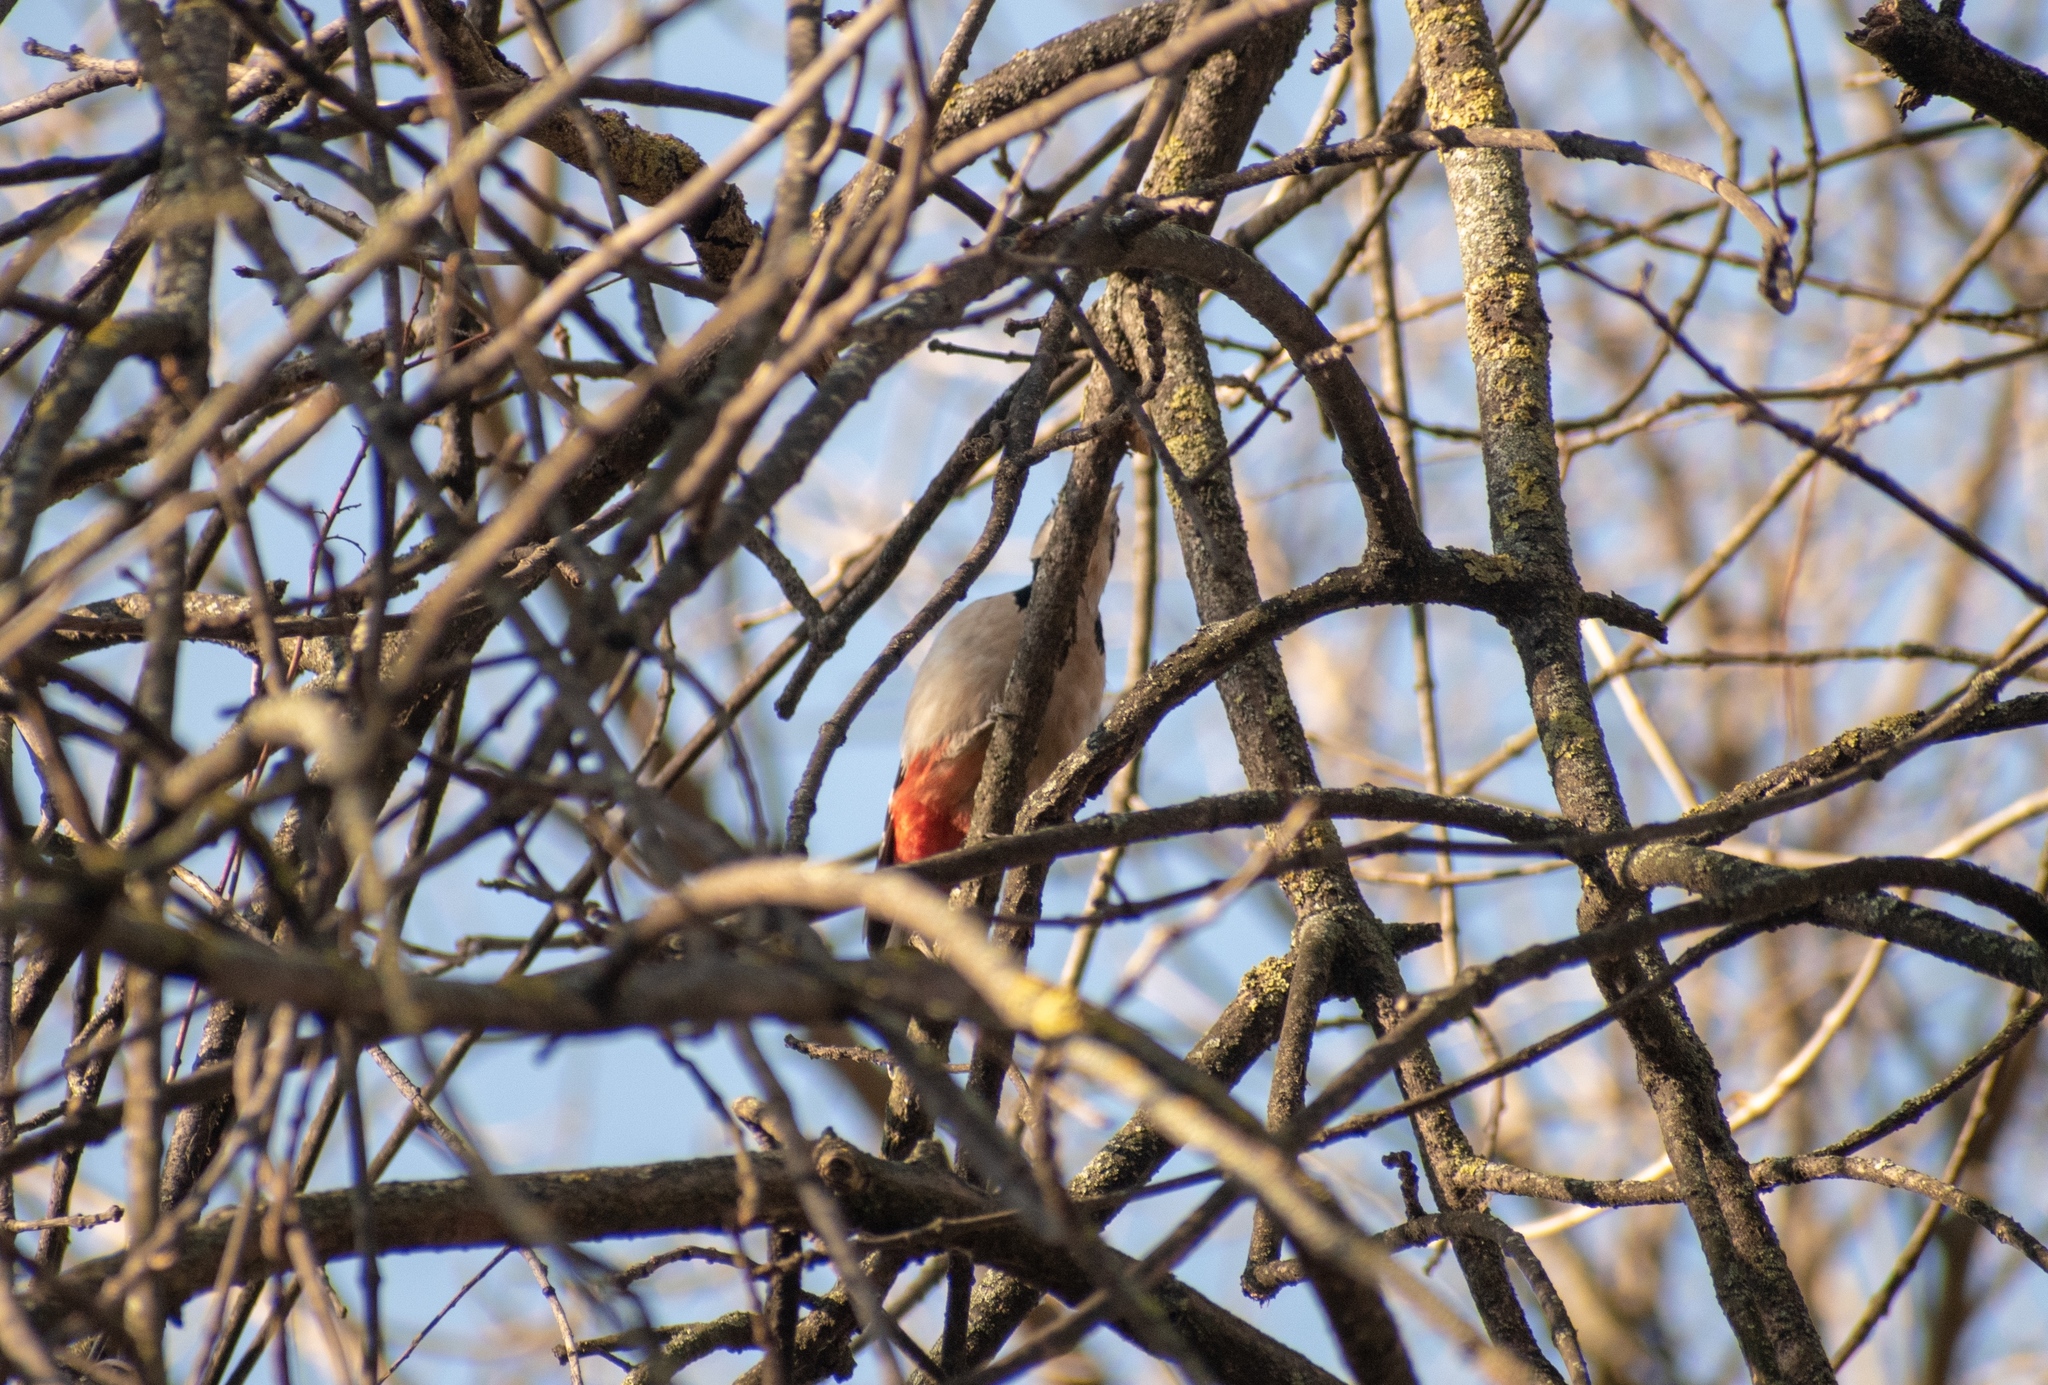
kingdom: Animalia
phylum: Chordata
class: Aves
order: Piciformes
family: Picidae
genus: Dendrocopos
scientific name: Dendrocopos major
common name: Great spotted woodpecker
